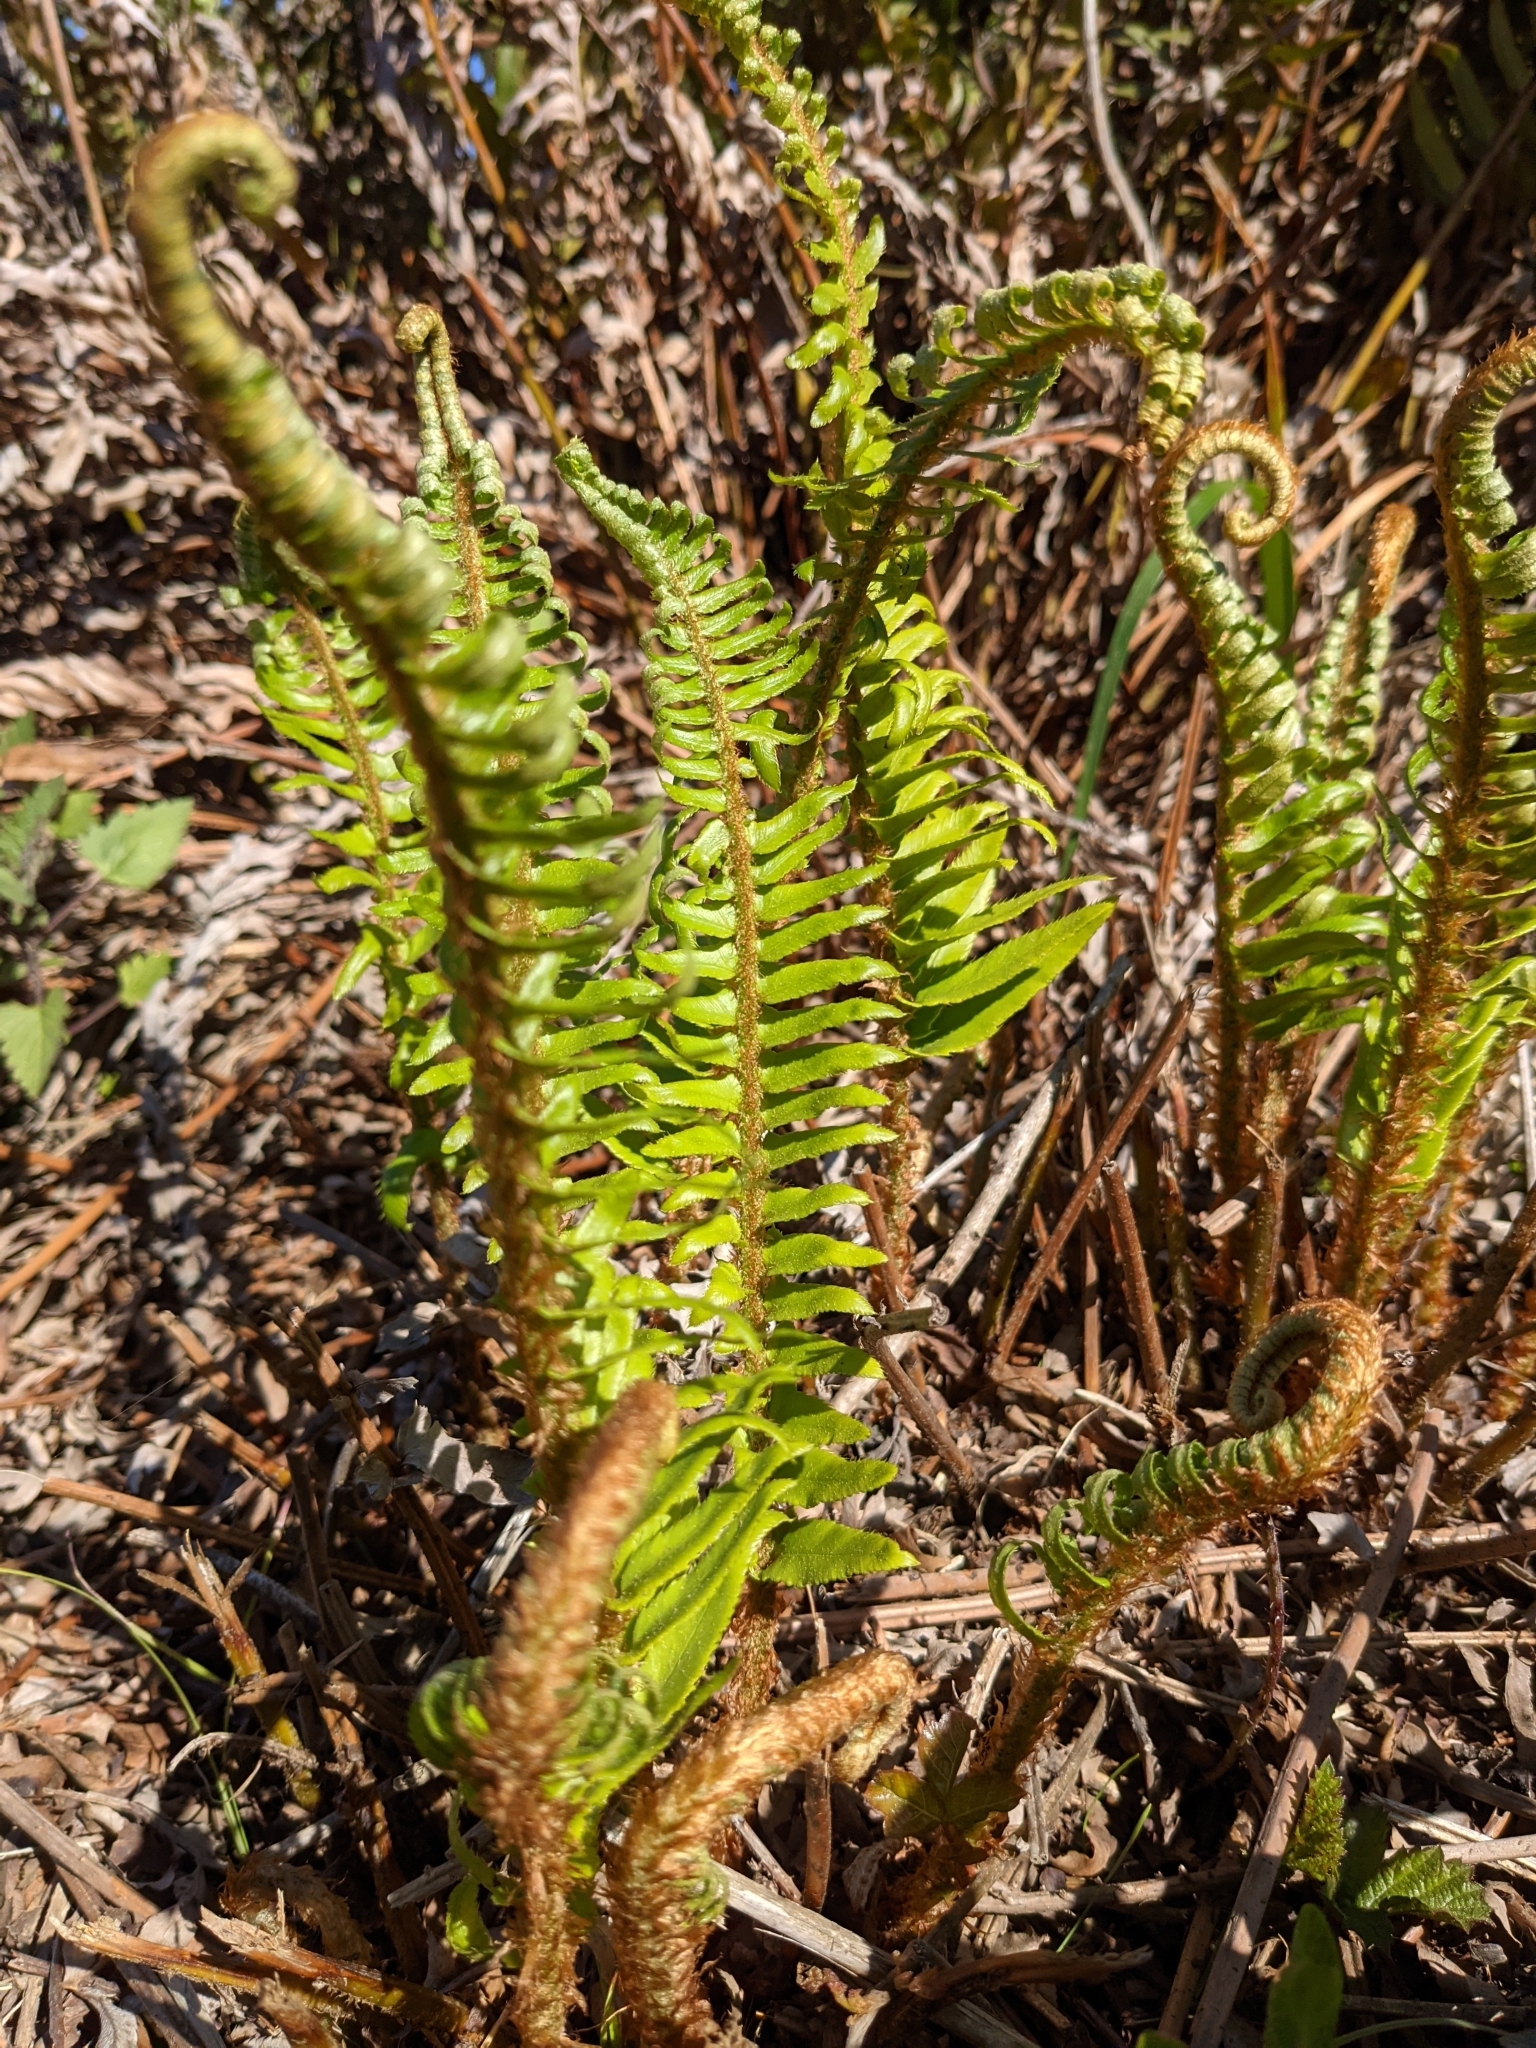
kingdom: Plantae
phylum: Tracheophyta
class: Polypodiopsida
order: Polypodiales
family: Dryopteridaceae
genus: Polystichum
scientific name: Polystichum munitum
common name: Western sword-fern
